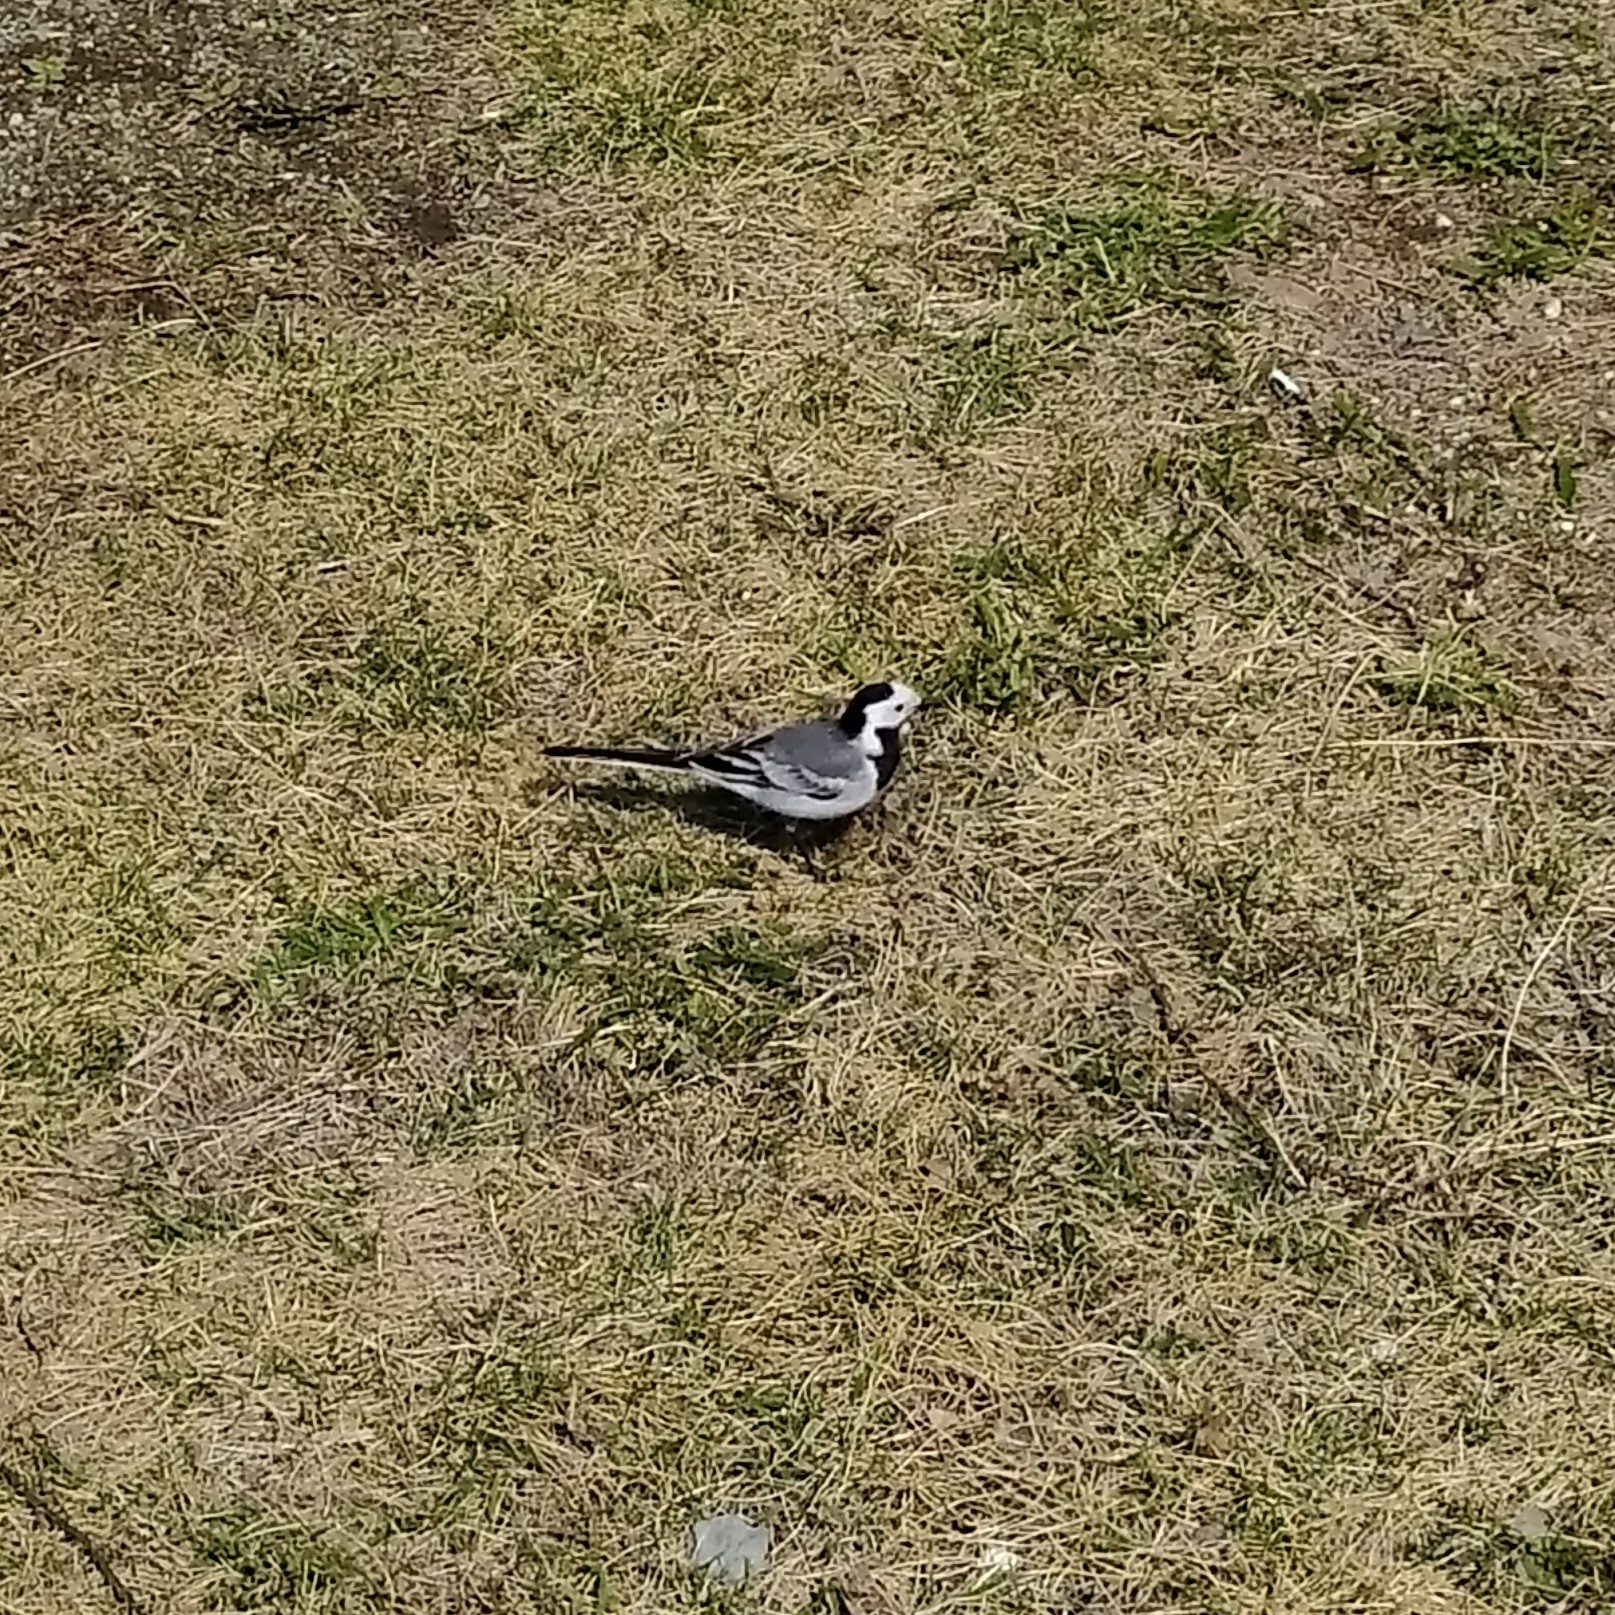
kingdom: Animalia
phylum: Chordata
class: Aves
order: Passeriformes
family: Motacillidae
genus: Motacilla
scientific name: Motacilla alba
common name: White wagtail
